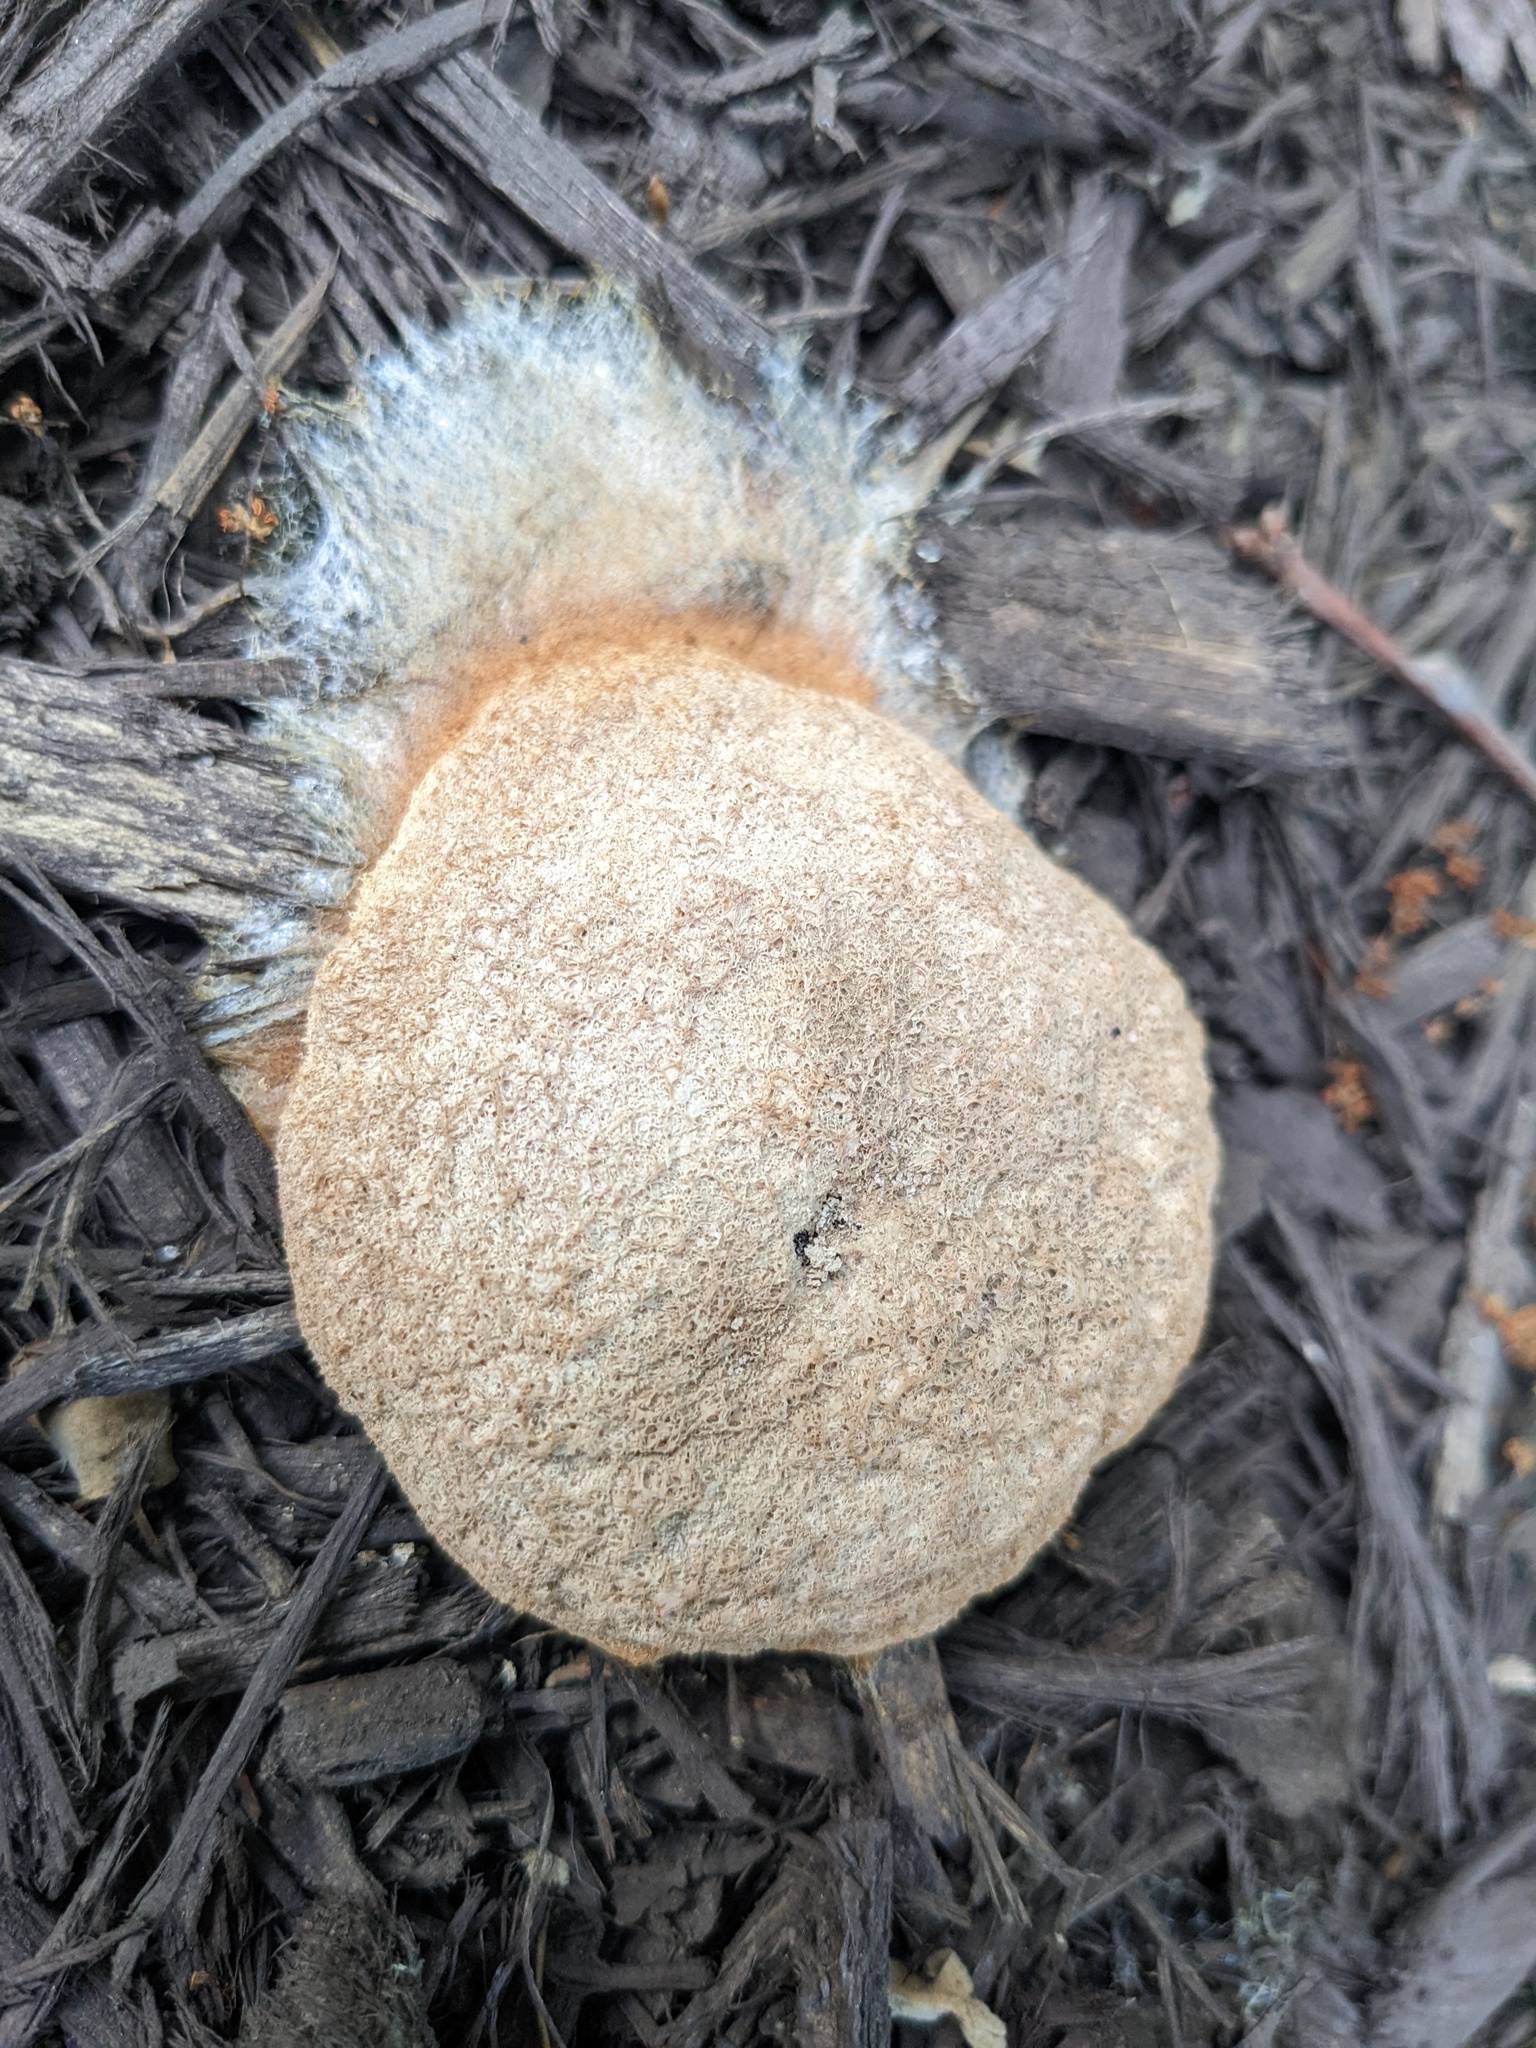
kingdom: Protozoa
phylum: Mycetozoa
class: Myxomycetes
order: Physarales
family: Physaraceae
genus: Fuligo
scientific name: Fuligo septica
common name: Dog vomit slime mold
